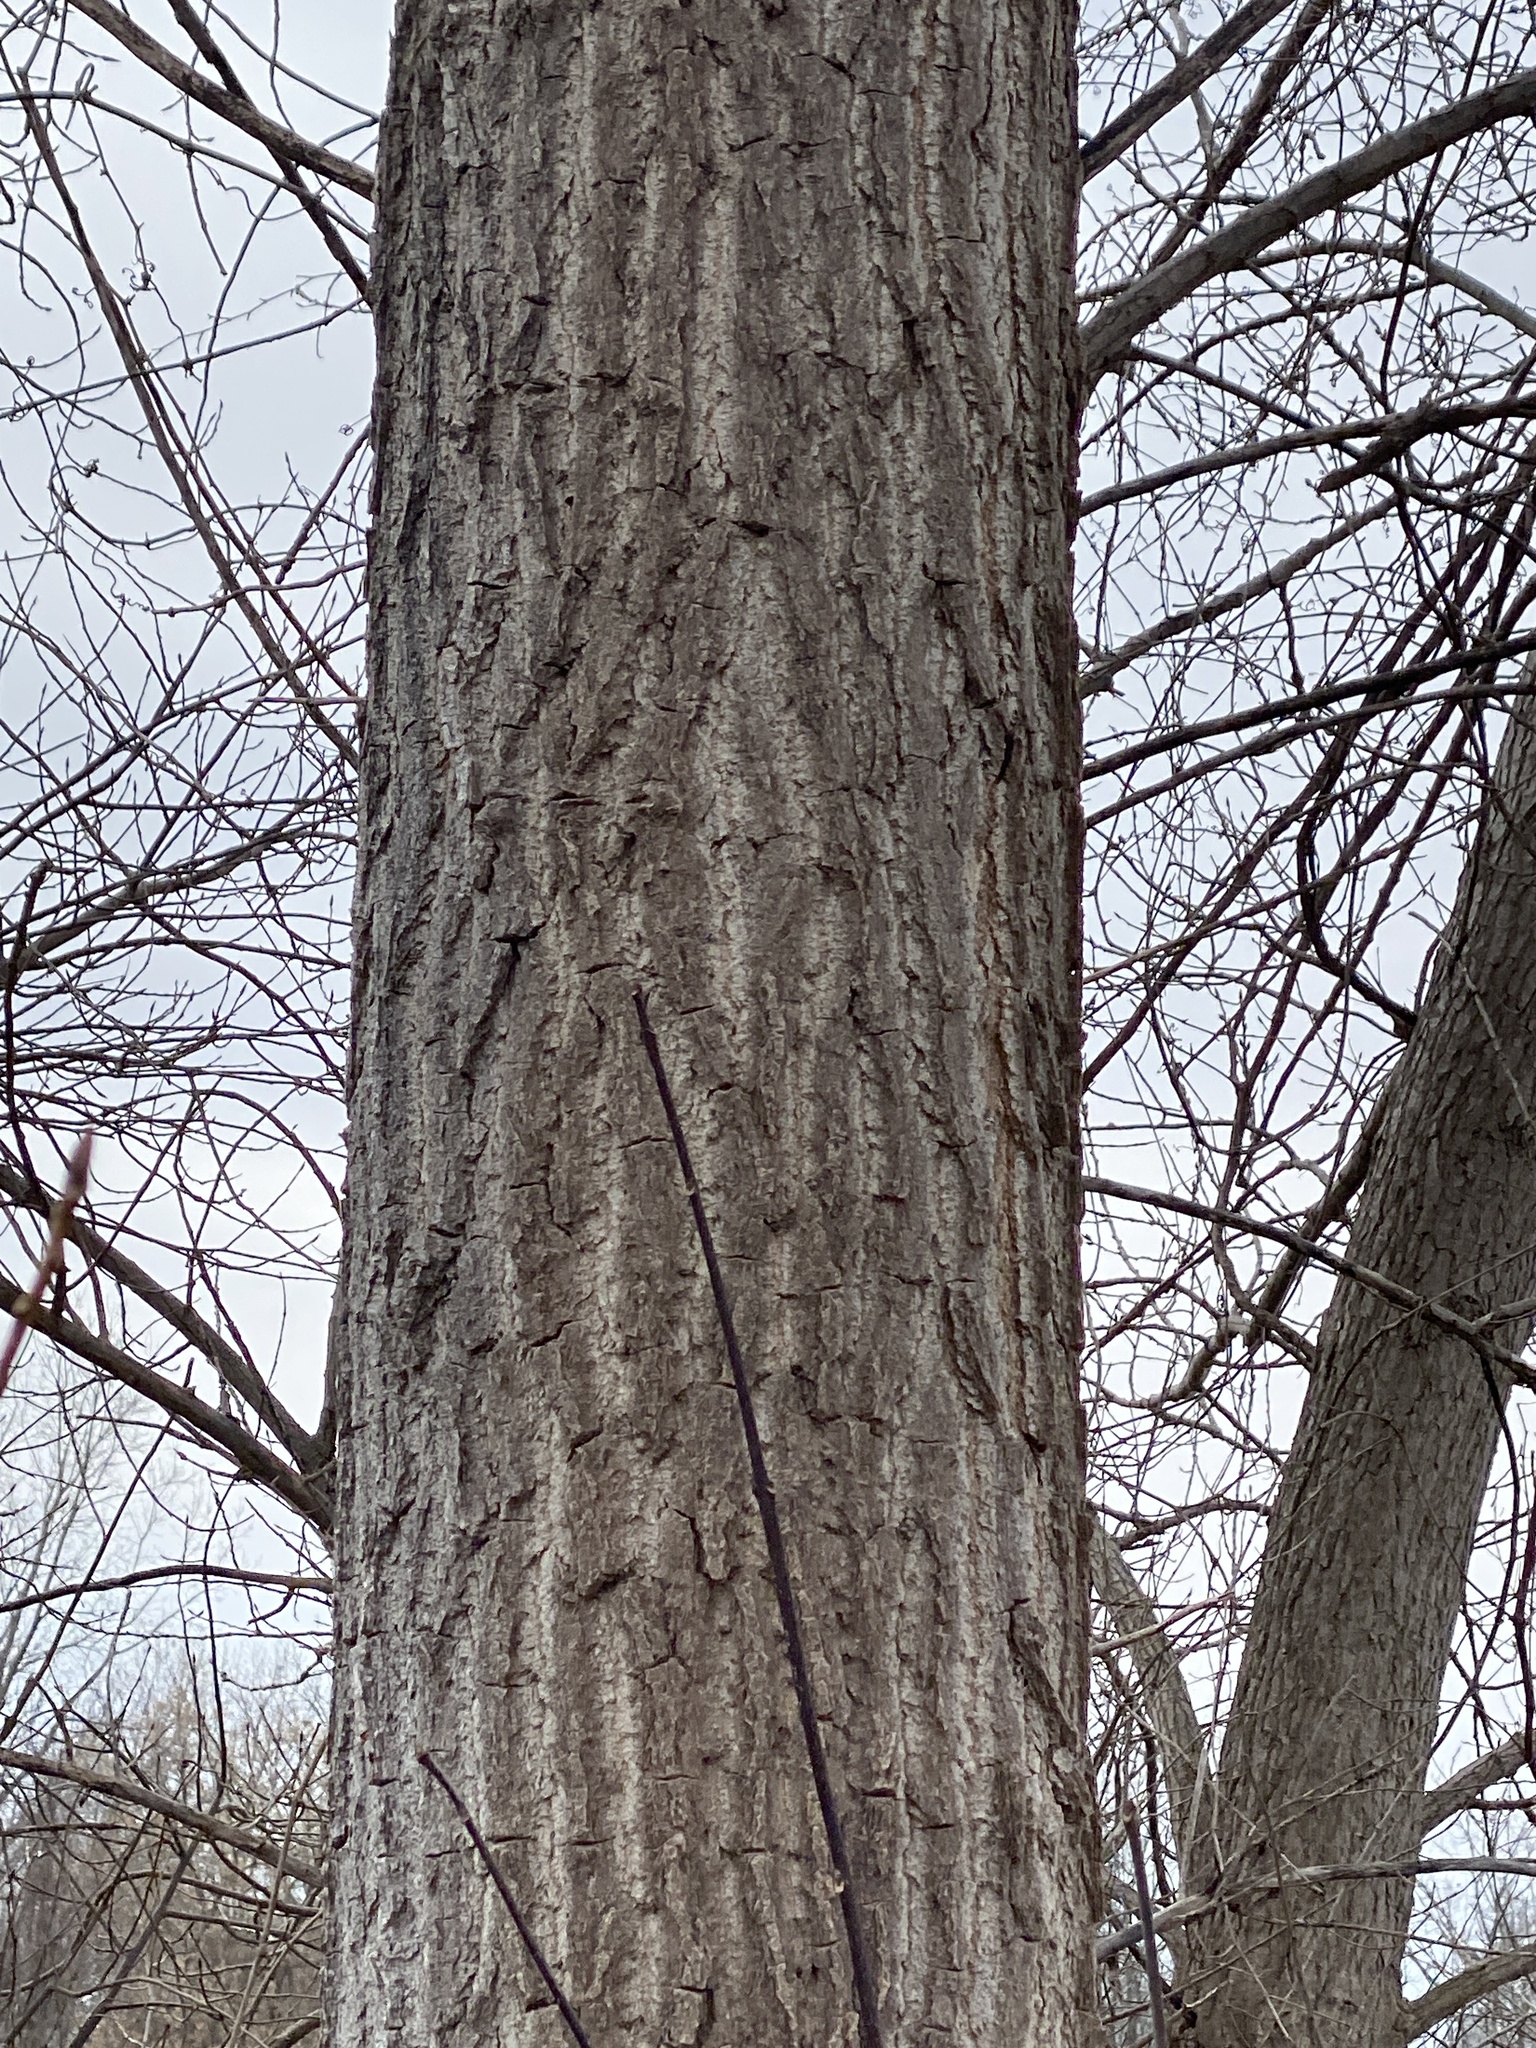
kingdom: Plantae
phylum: Tracheophyta
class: Magnoliopsida
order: Malpighiales
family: Salicaceae
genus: Populus
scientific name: Populus deltoides
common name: Eastern cottonwood
